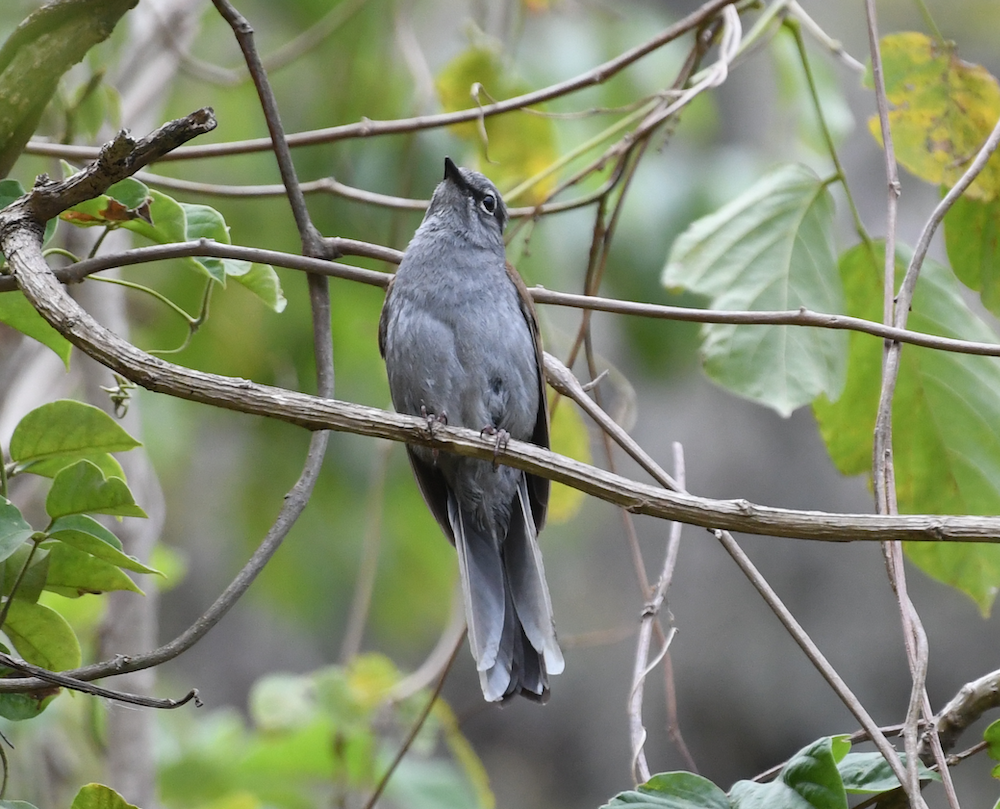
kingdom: Animalia
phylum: Chordata
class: Aves
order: Passeriformes
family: Turdidae
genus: Myadestes
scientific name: Myadestes occidentalis
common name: Brown-backed solitaire
